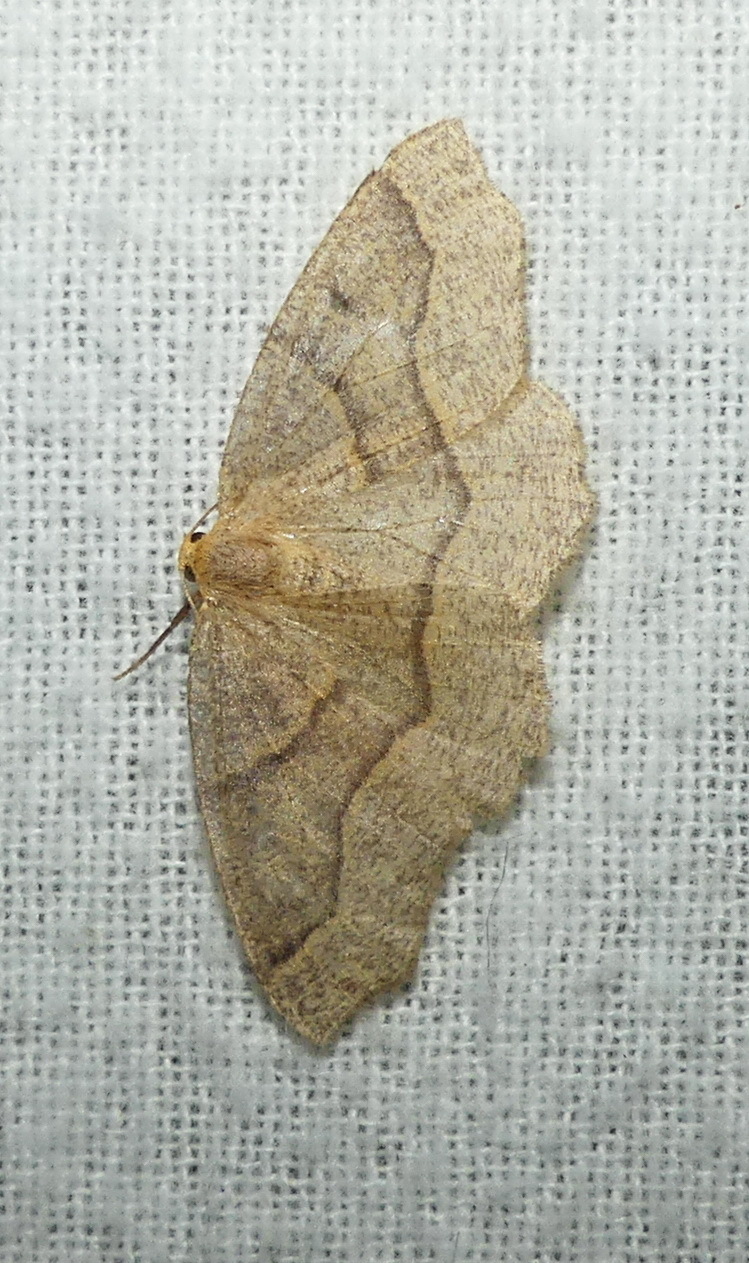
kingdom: Animalia
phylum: Arthropoda
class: Insecta
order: Lepidoptera
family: Geometridae
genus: Lambdina
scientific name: Lambdina fiscellaria
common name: Hemlock looper
